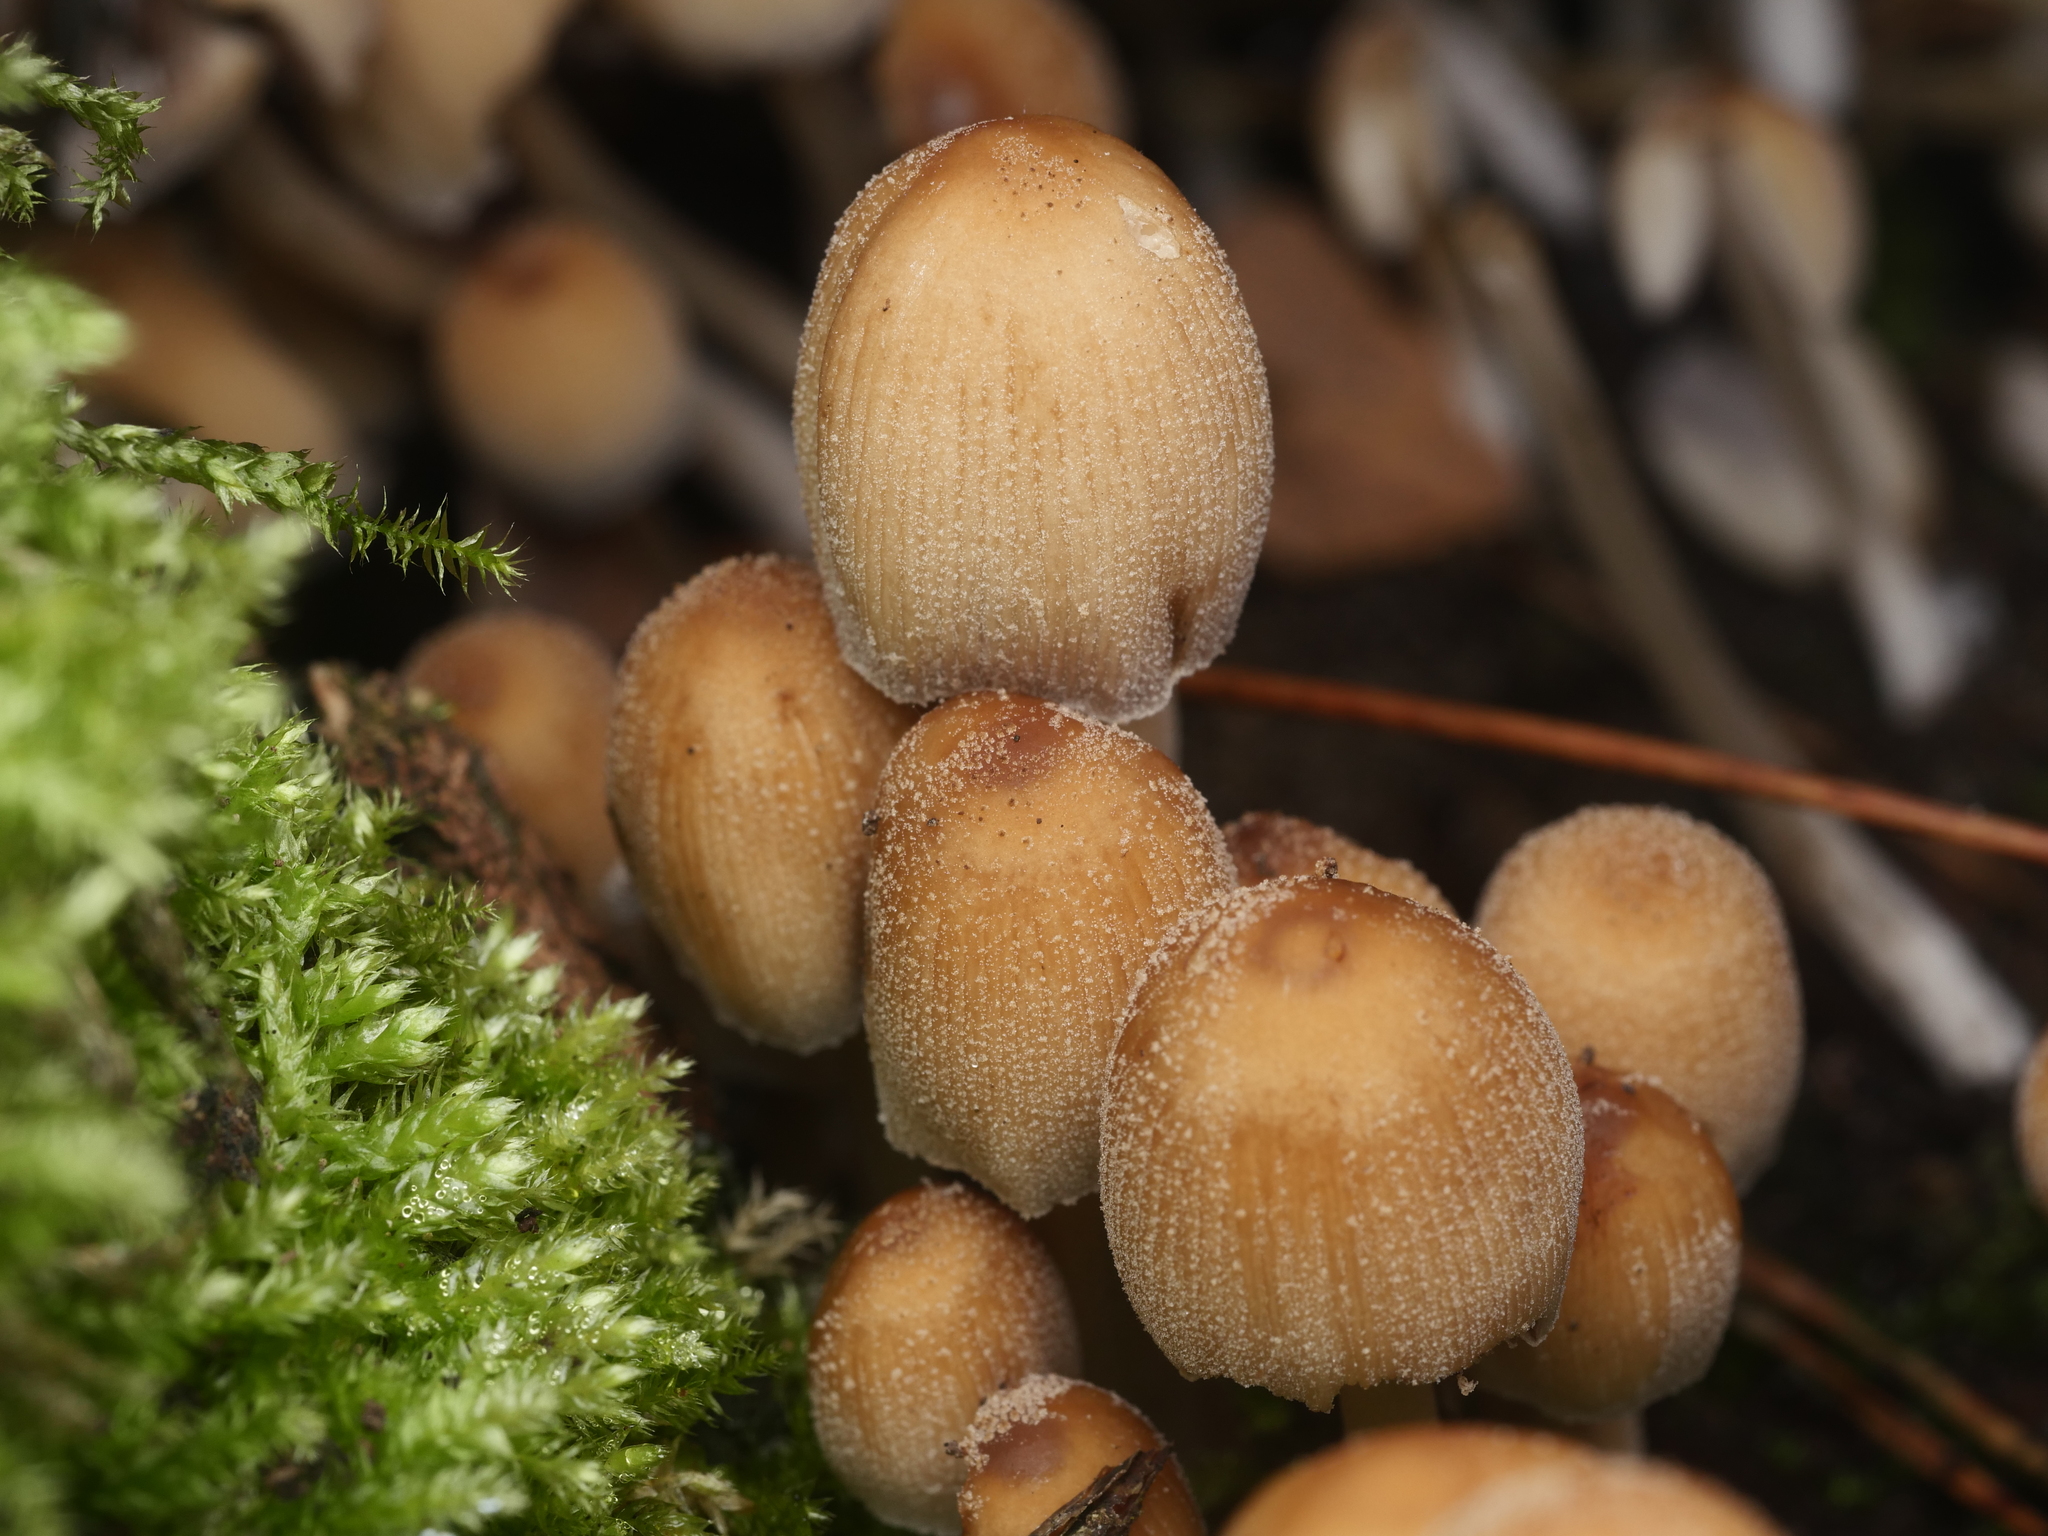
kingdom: Fungi
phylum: Basidiomycota
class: Agaricomycetes
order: Agaricales
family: Psathyrellaceae
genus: Coprinellus
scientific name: Coprinellus micaceus
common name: Glistening ink-cap
